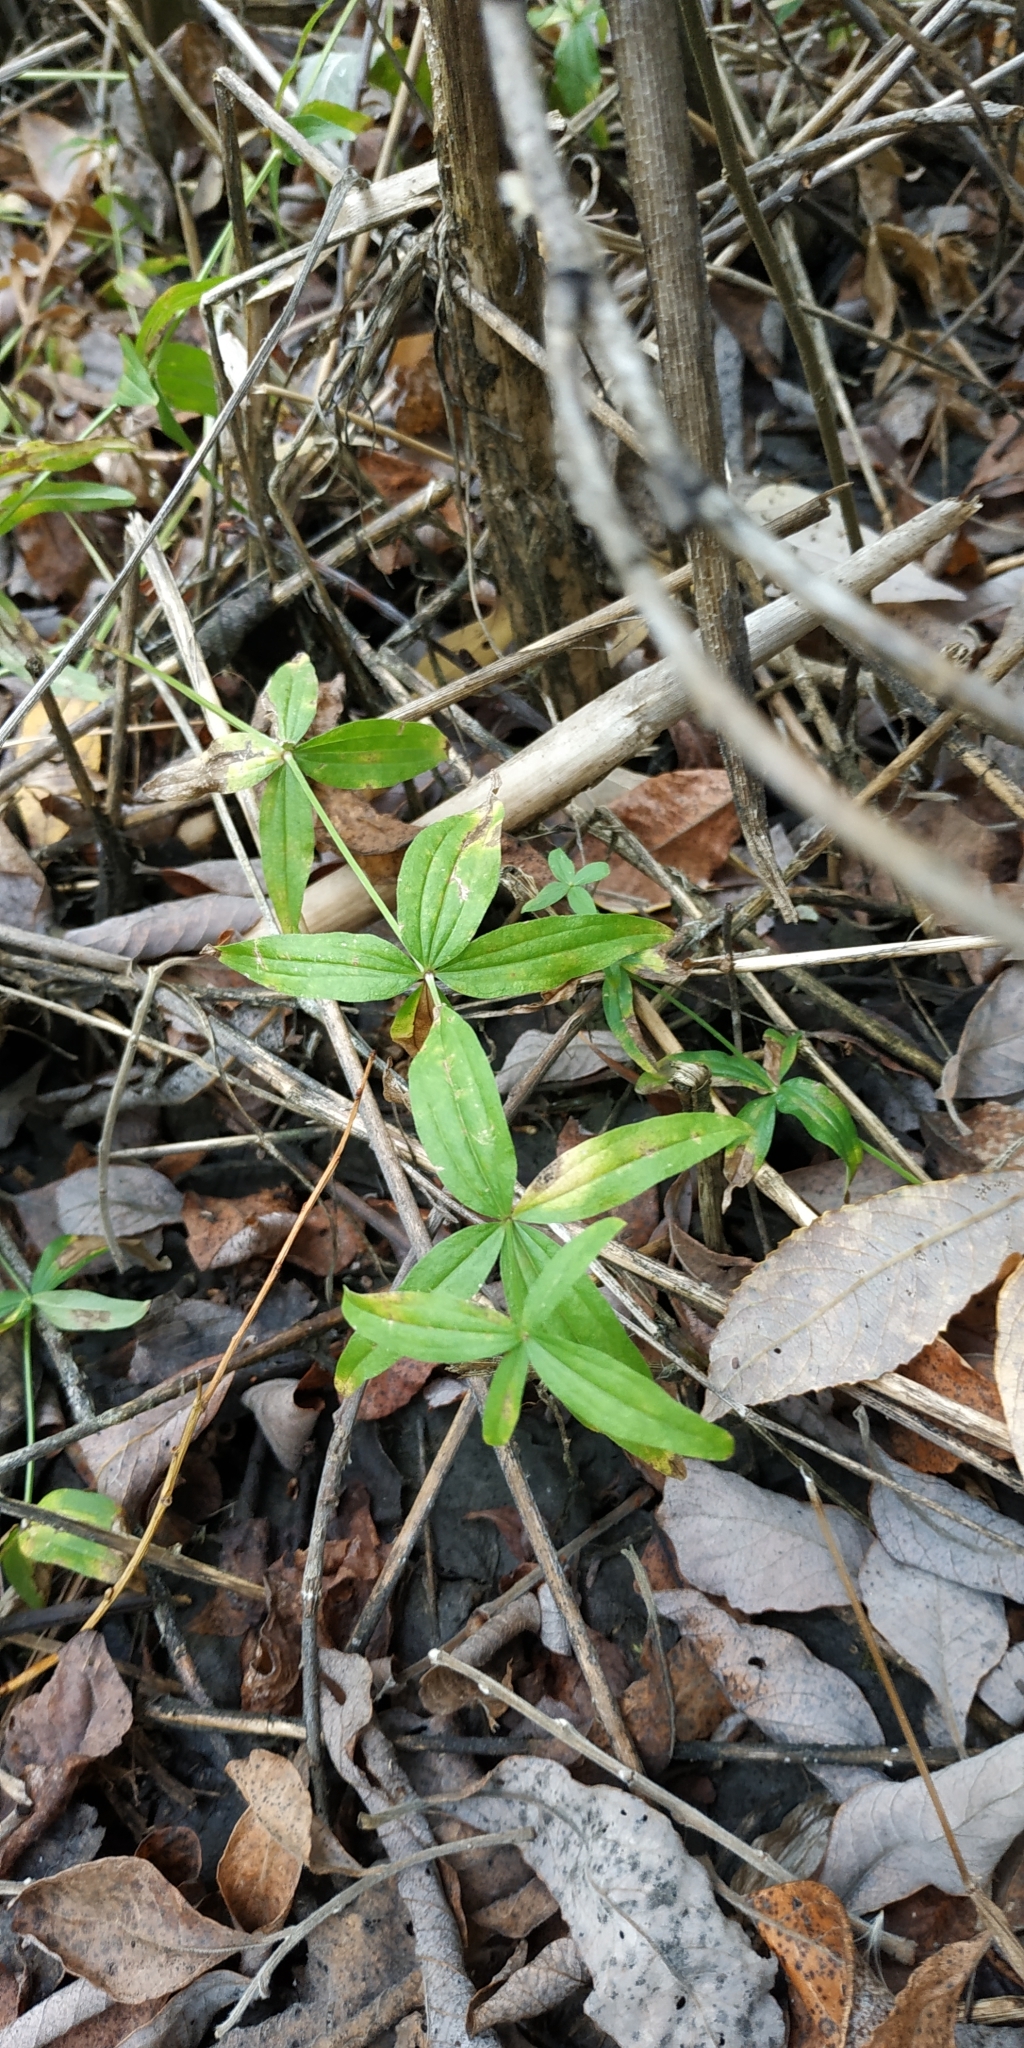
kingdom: Plantae
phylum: Tracheophyta
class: Magnoliopsida
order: Gentianales
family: Rubiaceae
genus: Galium
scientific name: Galium boreale
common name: Northern bedstraw
